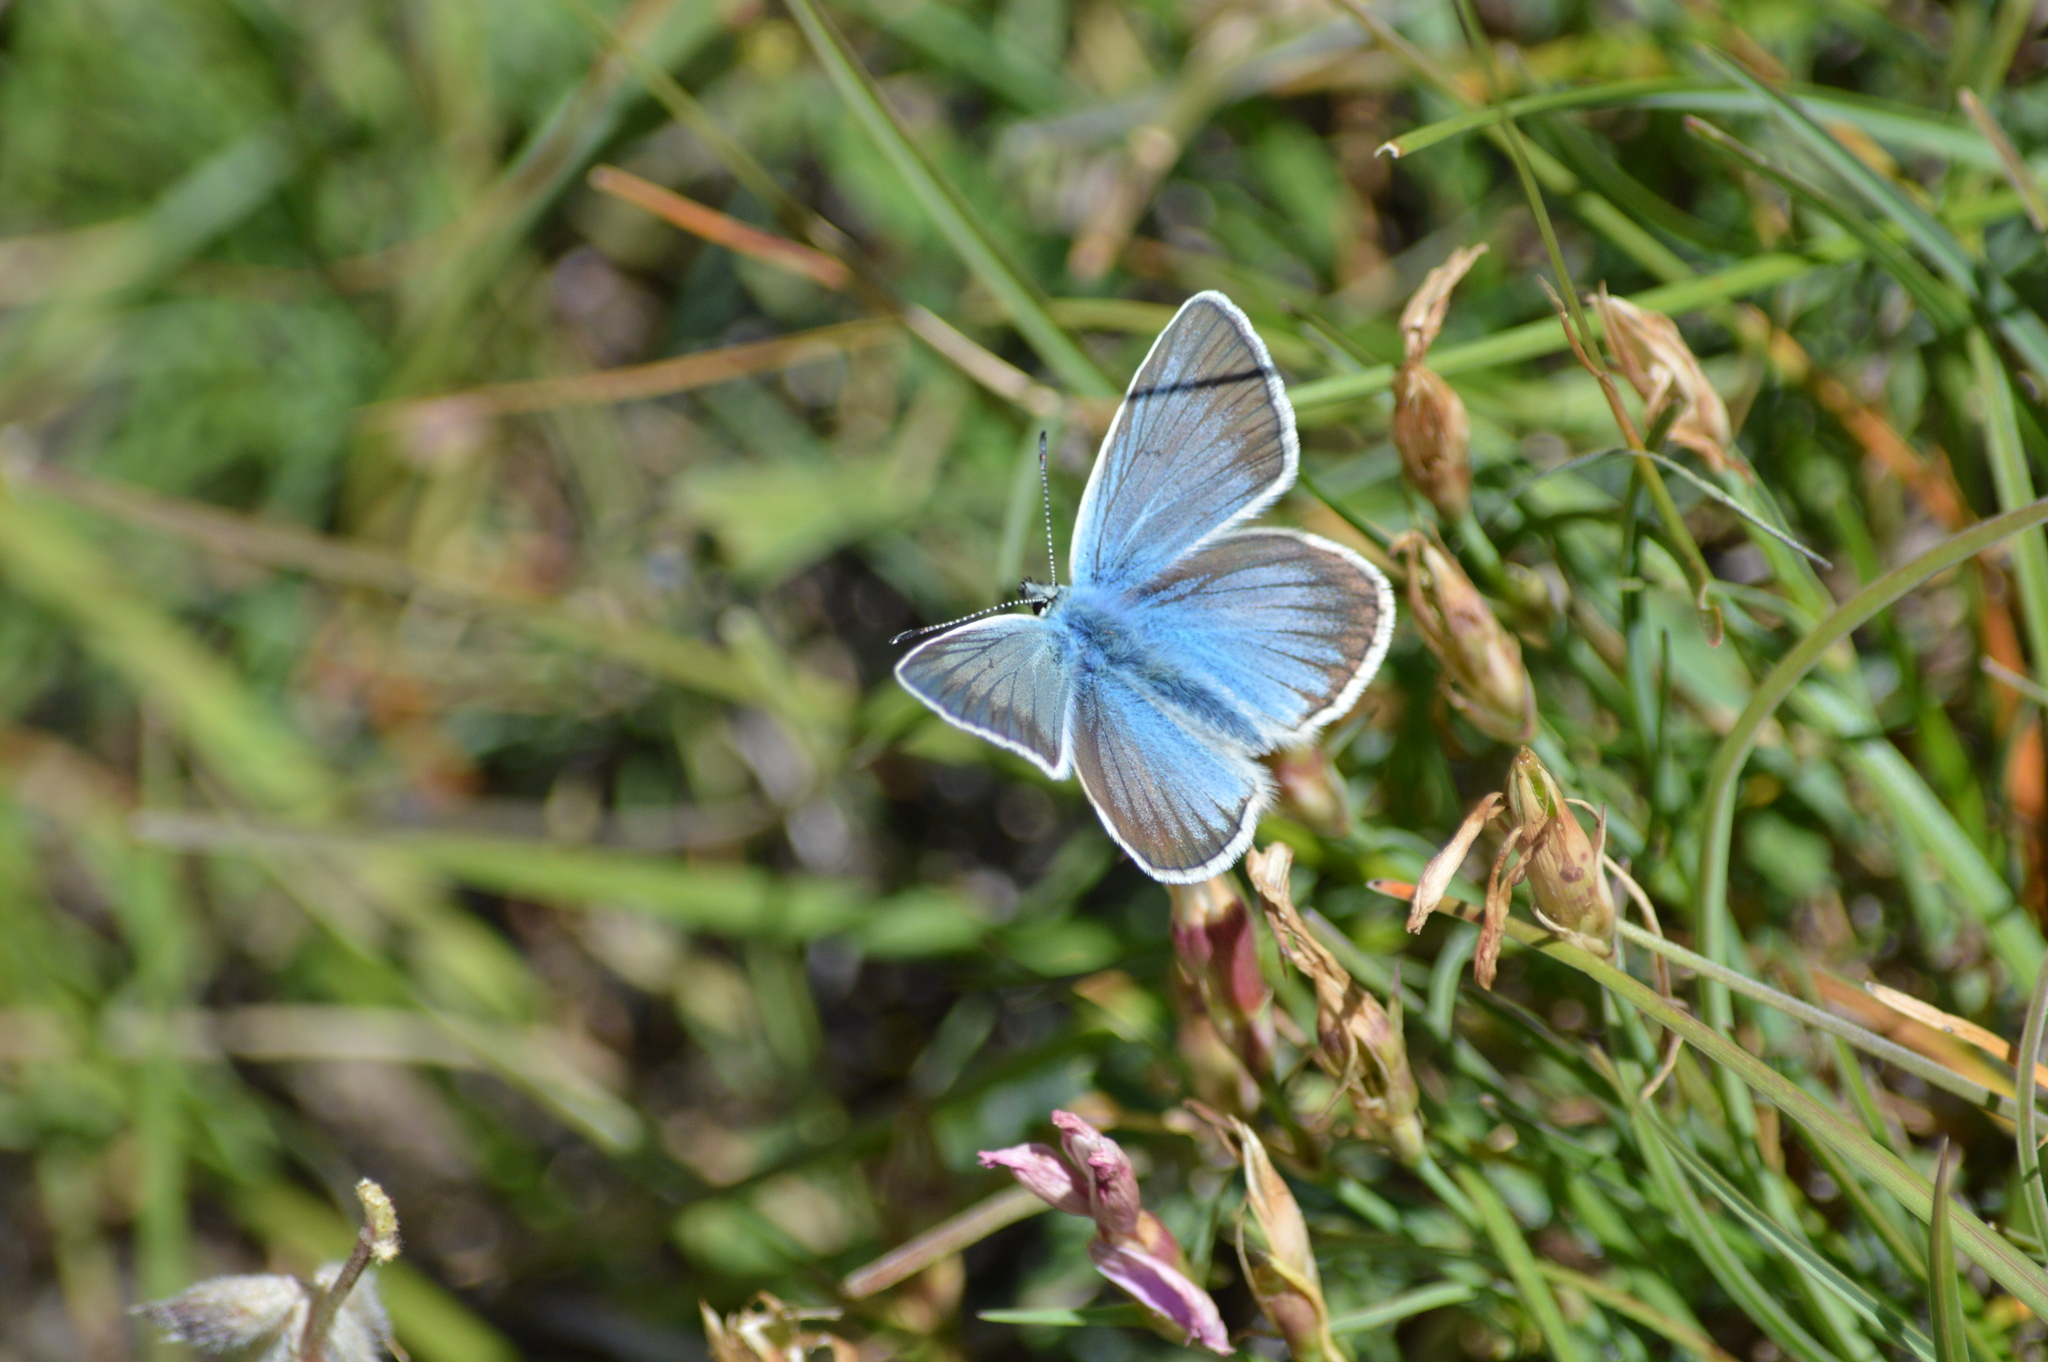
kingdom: Animalia
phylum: Arthropoda
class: Insecta
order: Lepidoptera
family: Lycaenidae
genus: Agrodiaetus
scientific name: Agrodiaetus damon
